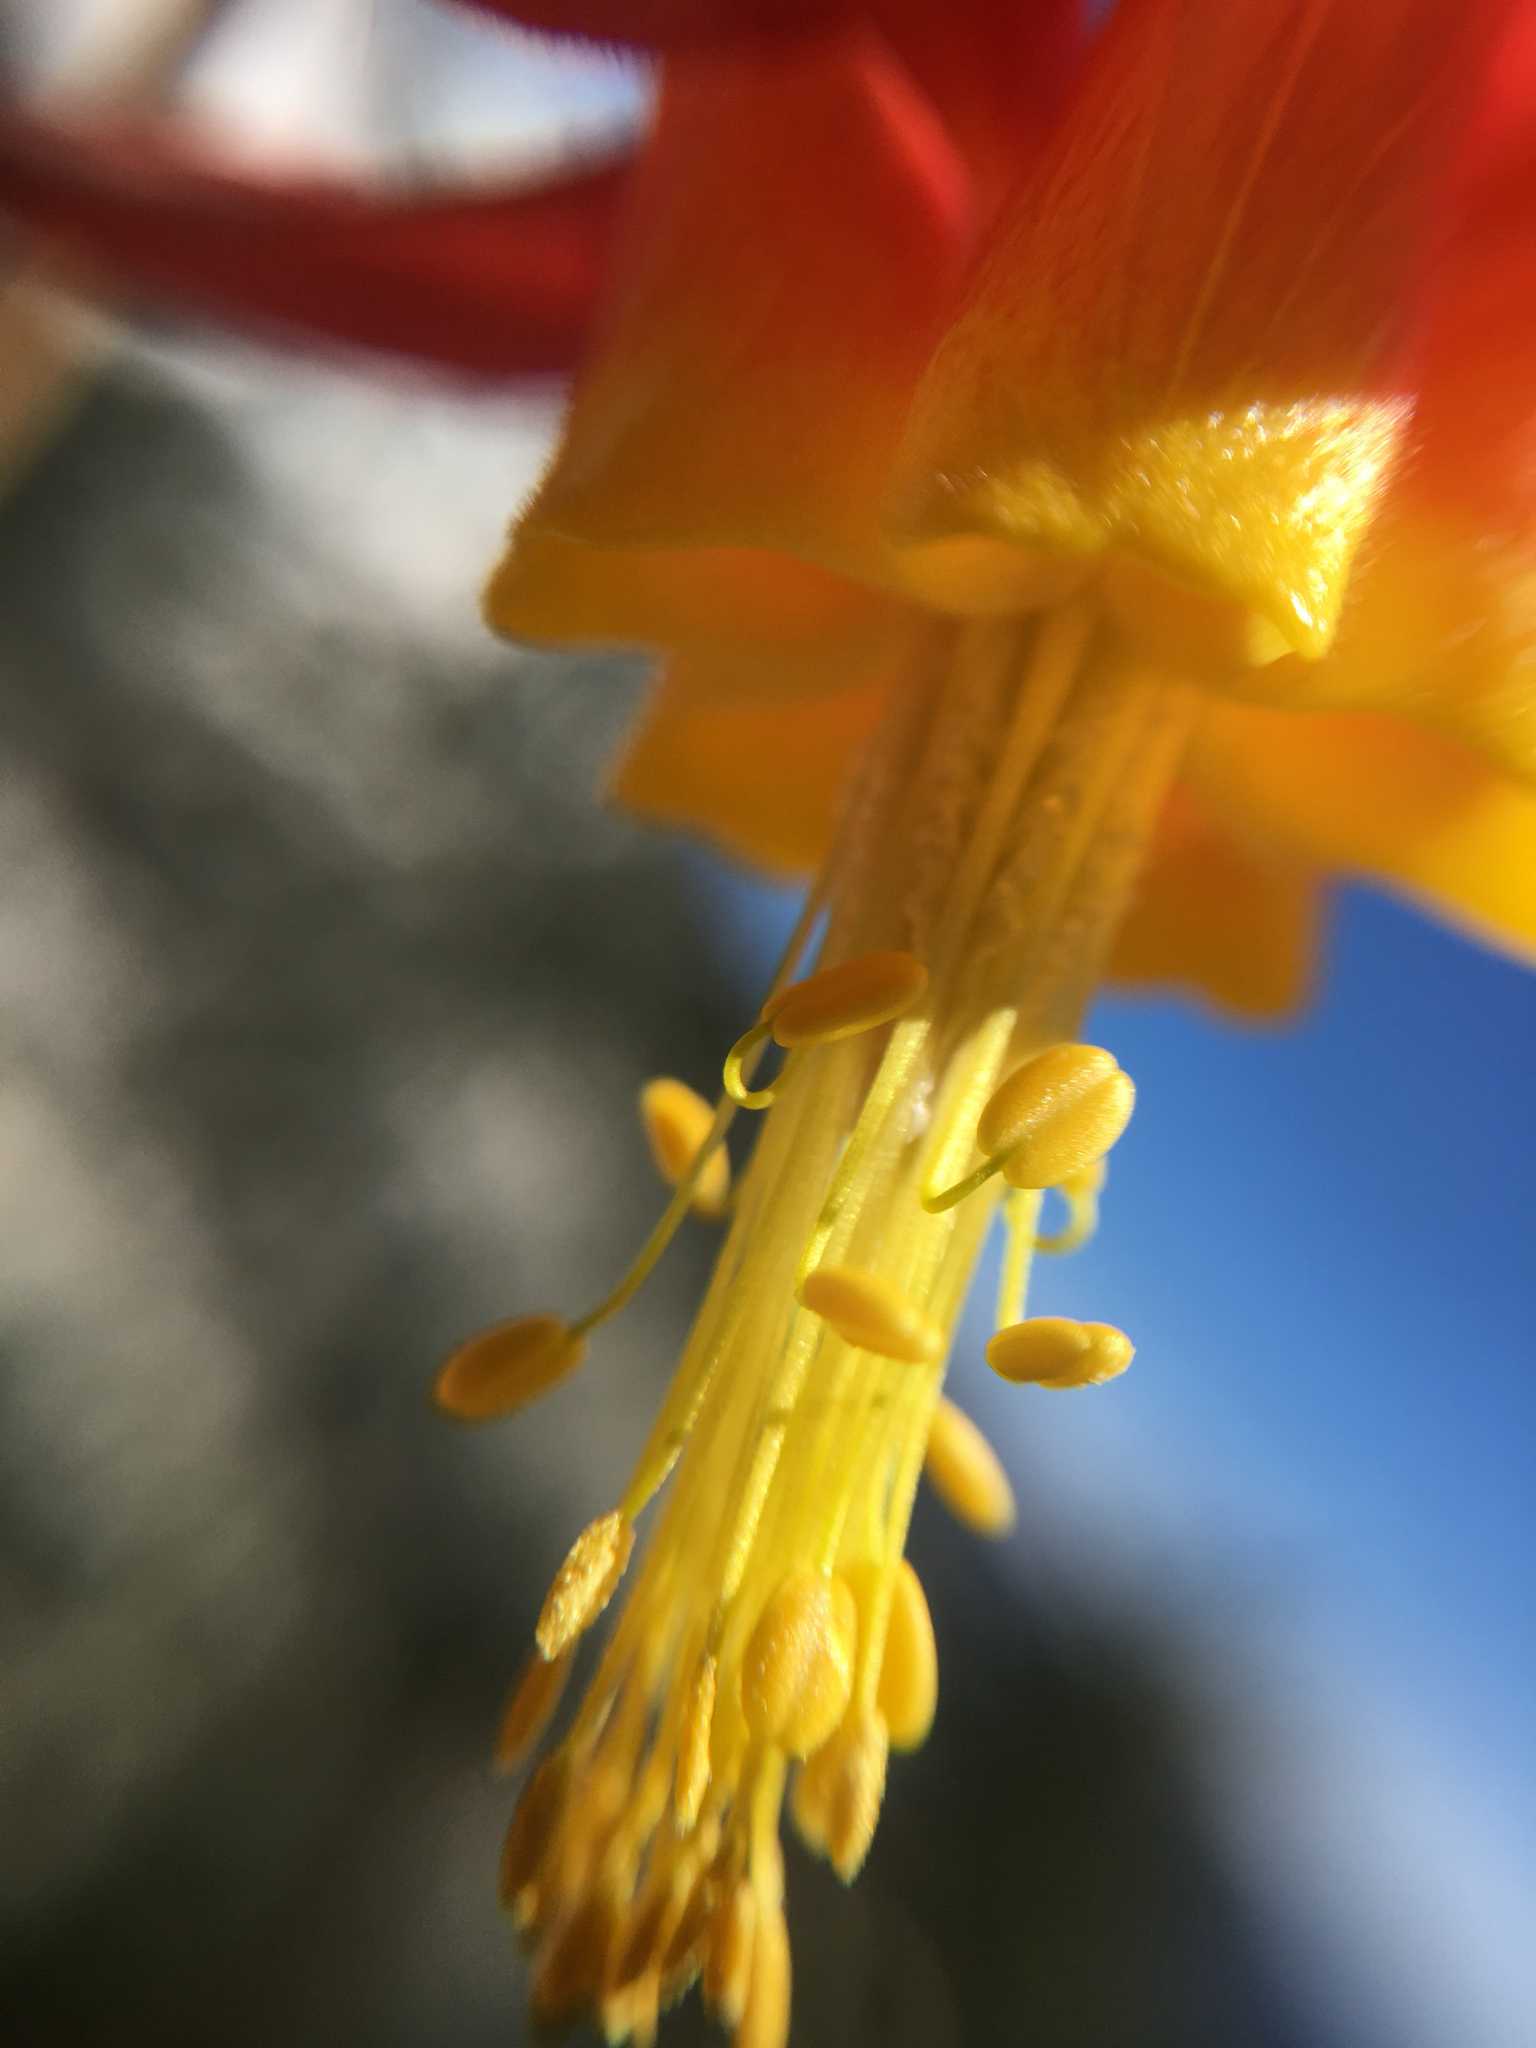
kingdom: Plantae
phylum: Tracheophyta
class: Magnoliopsida
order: Ranunculales
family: Ranunculaceae
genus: Aquilegia
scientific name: Aquilegia formosa
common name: Sitka columbine
